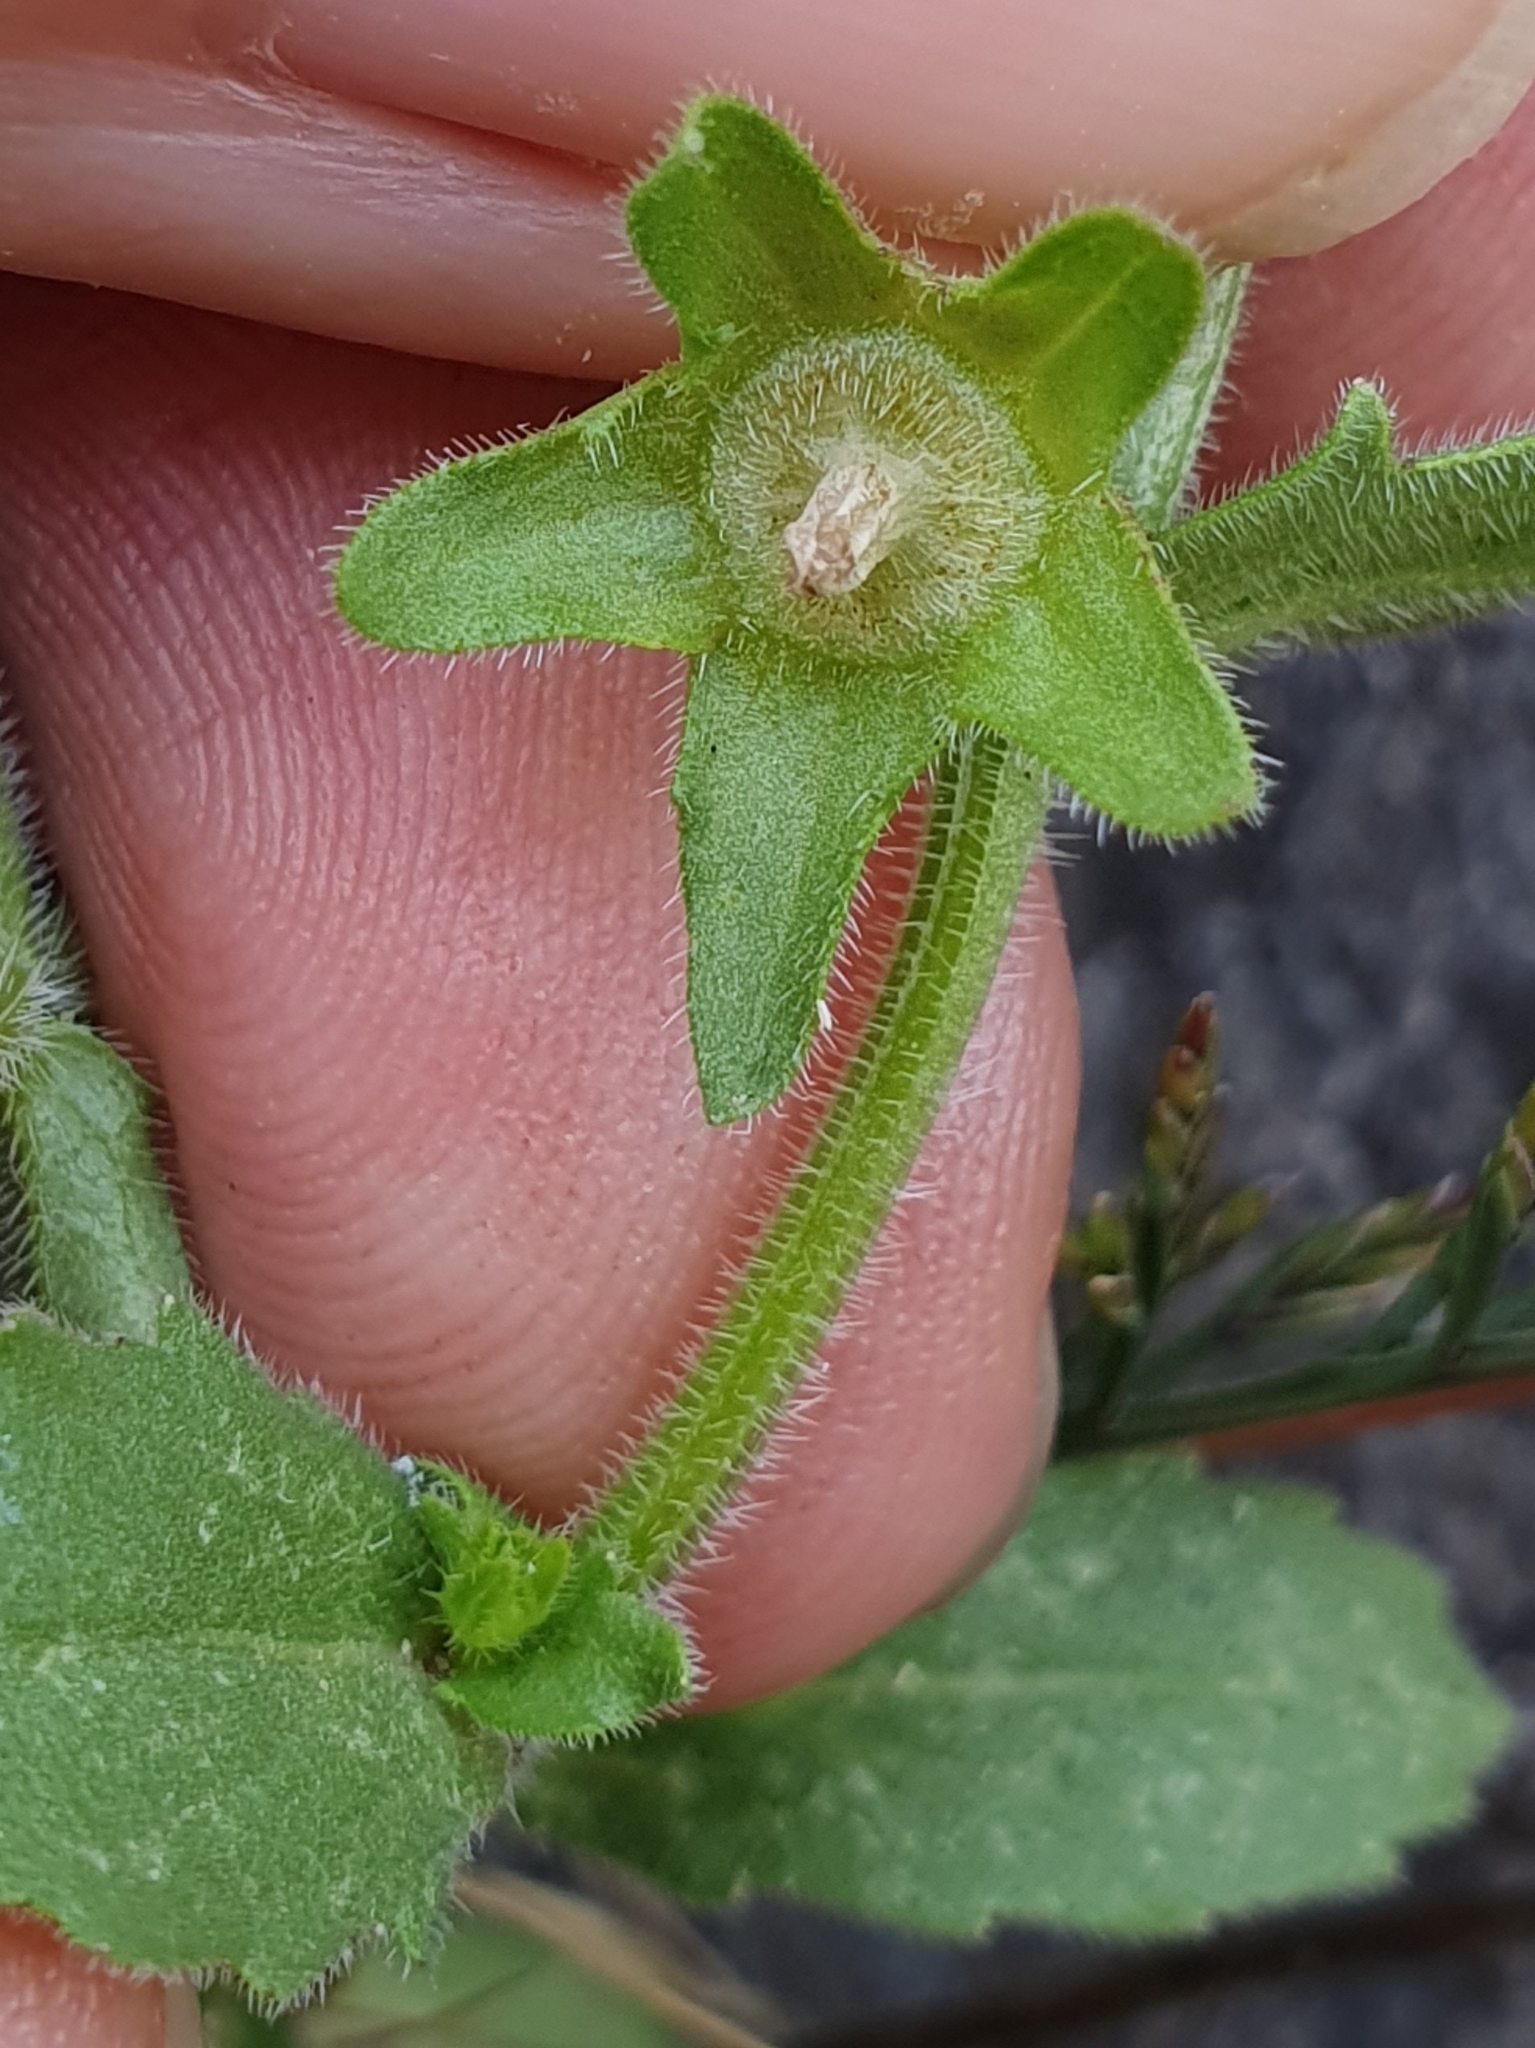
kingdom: Plantae
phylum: Tracheophyta
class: Magnoliopsida
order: Asterales
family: Campanulaceae
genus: Campanula
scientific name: Campanula erinus
